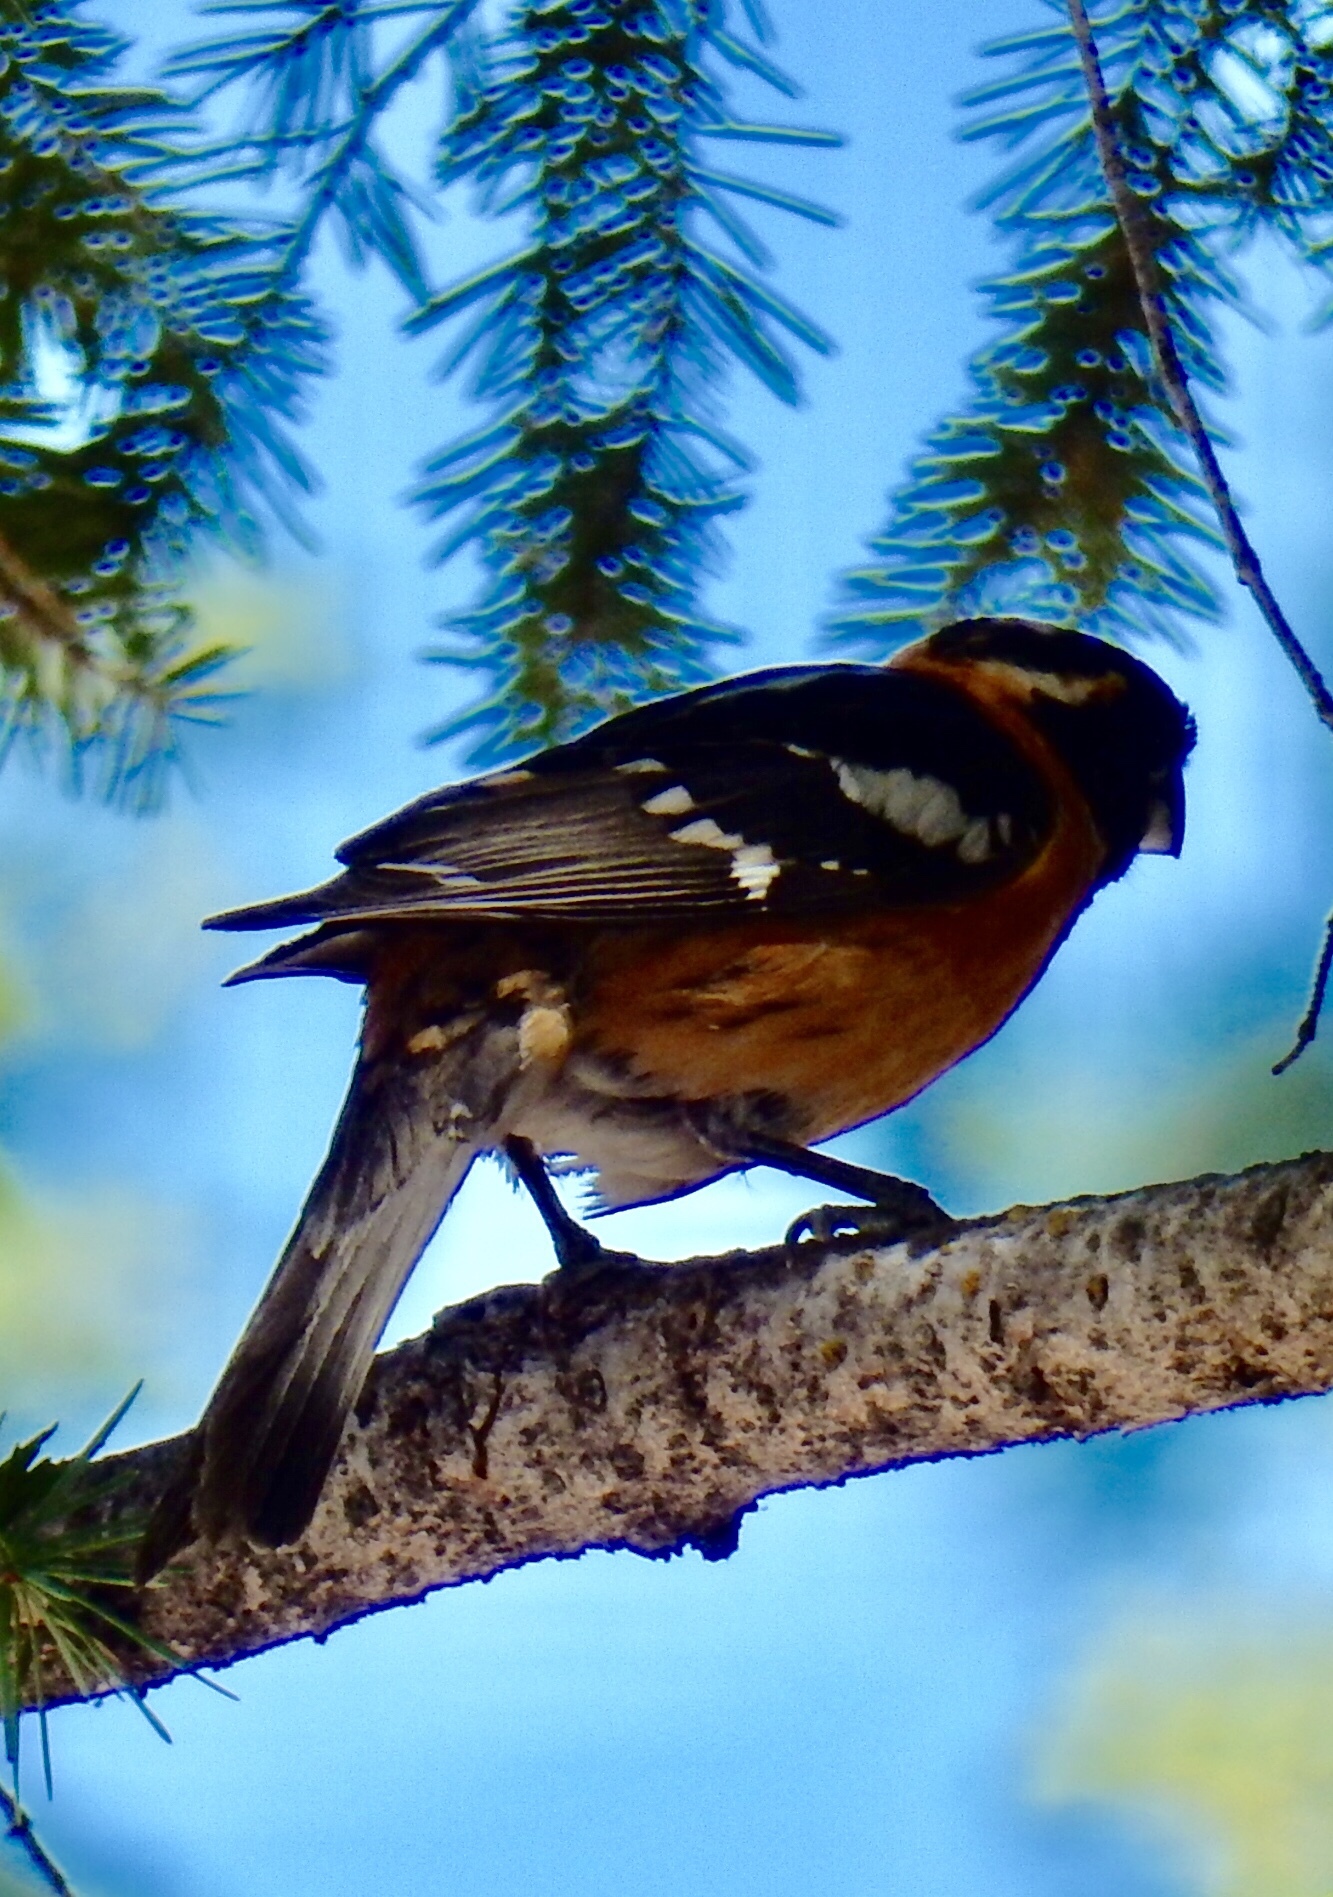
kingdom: Animalia
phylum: Chordata
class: Aves
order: Passeriformes
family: Cardinalidae
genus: Pheucticus
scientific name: Pheucticus melanocephalus
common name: Black-headed grosbeak
